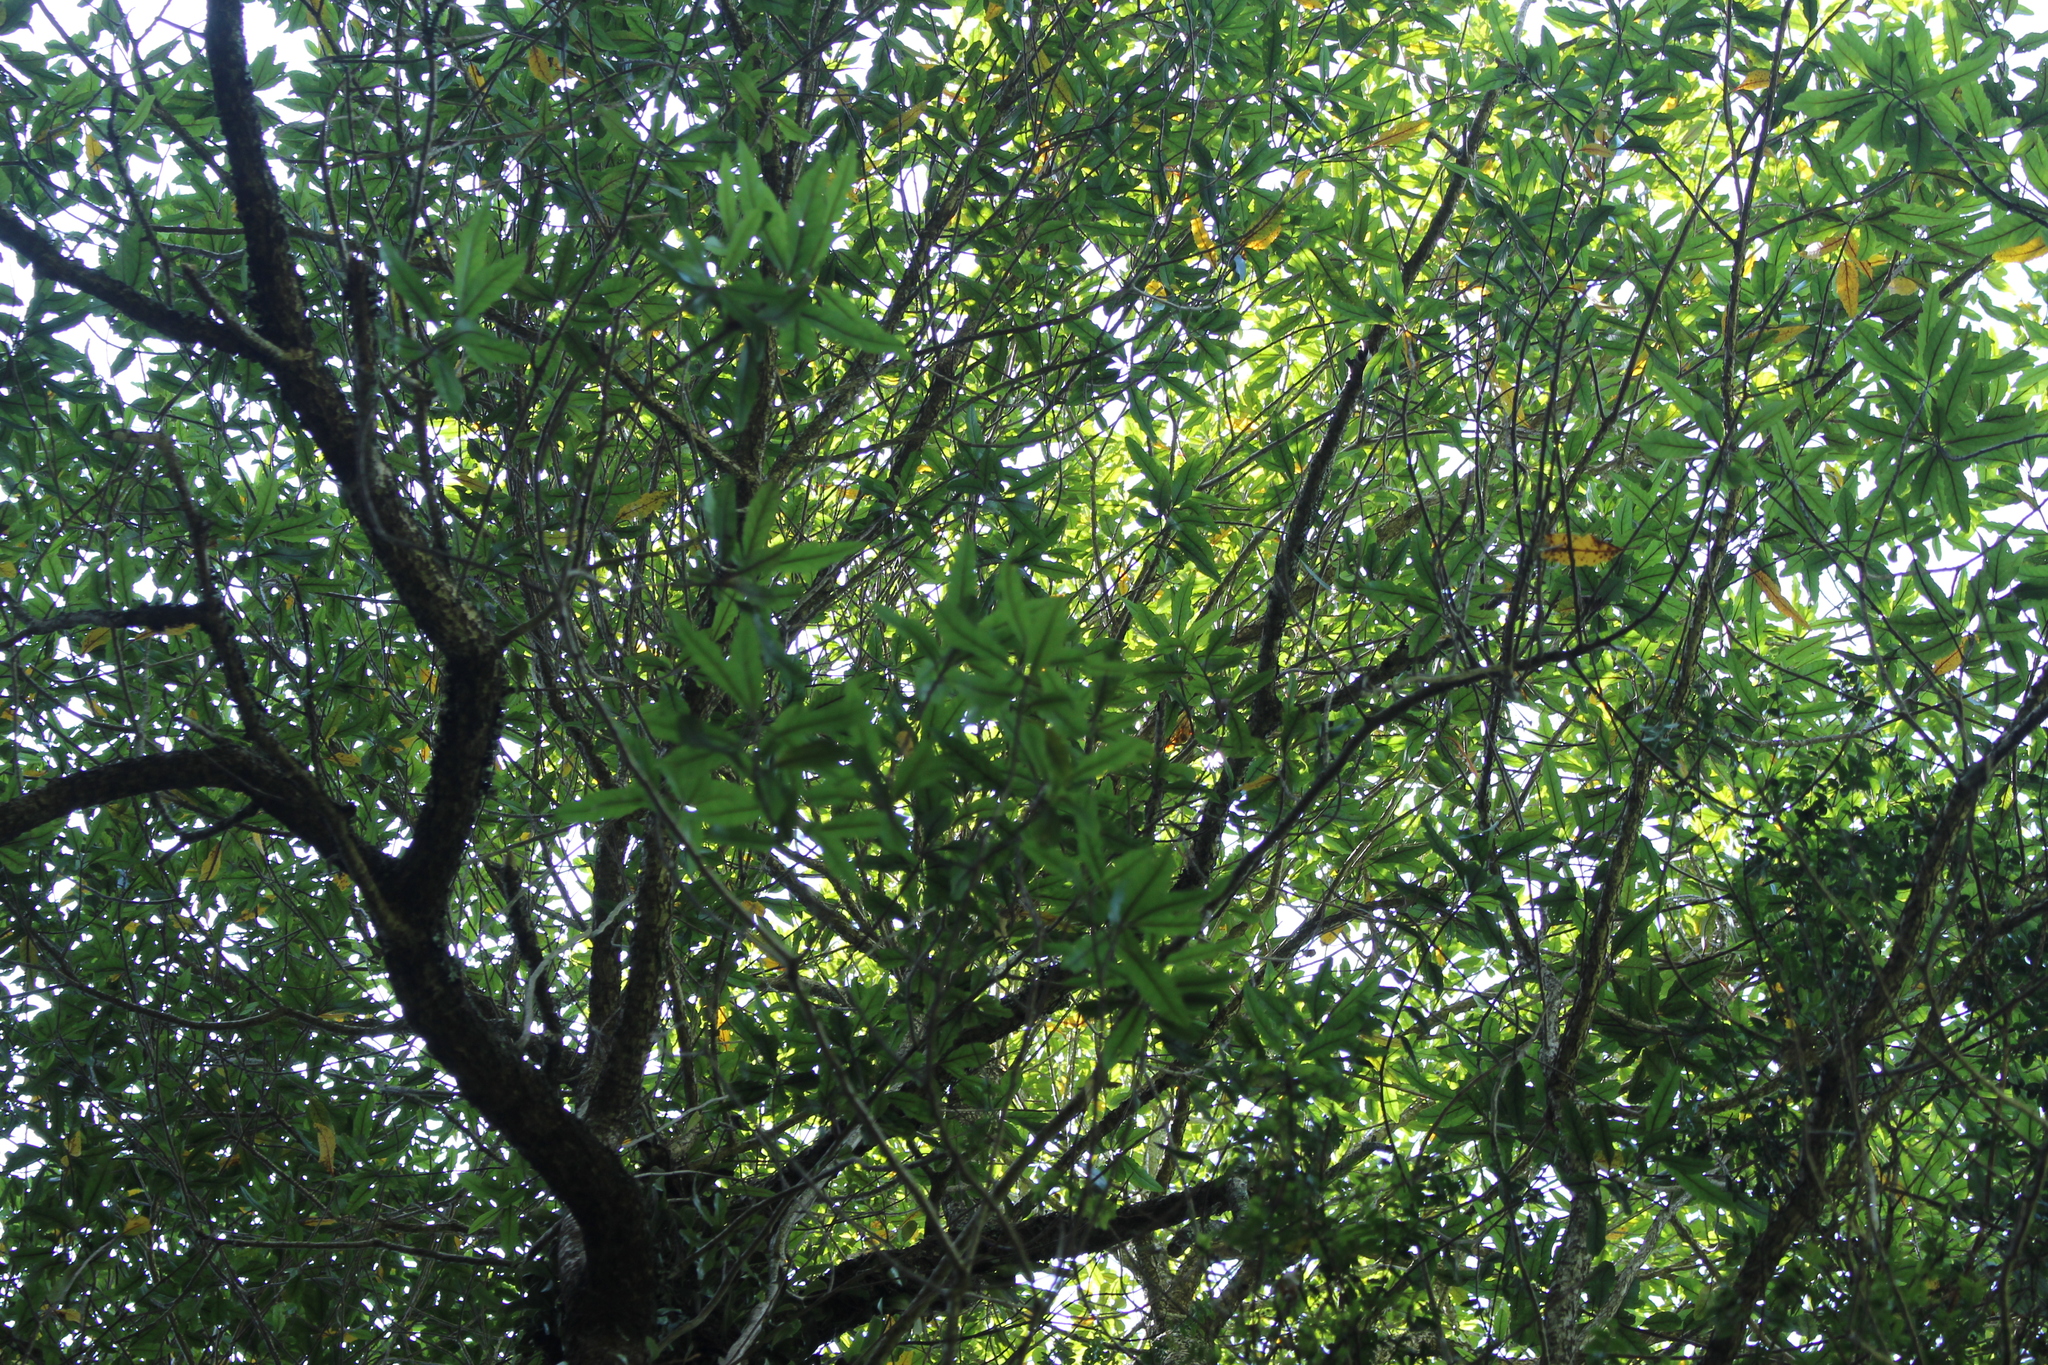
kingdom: Plantae
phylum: Tracheophyta
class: Magnoliopsida
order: Oxalidales
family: Elaeocarpaceae
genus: Elaeocarpus
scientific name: Elaeocarpus hookerianus
